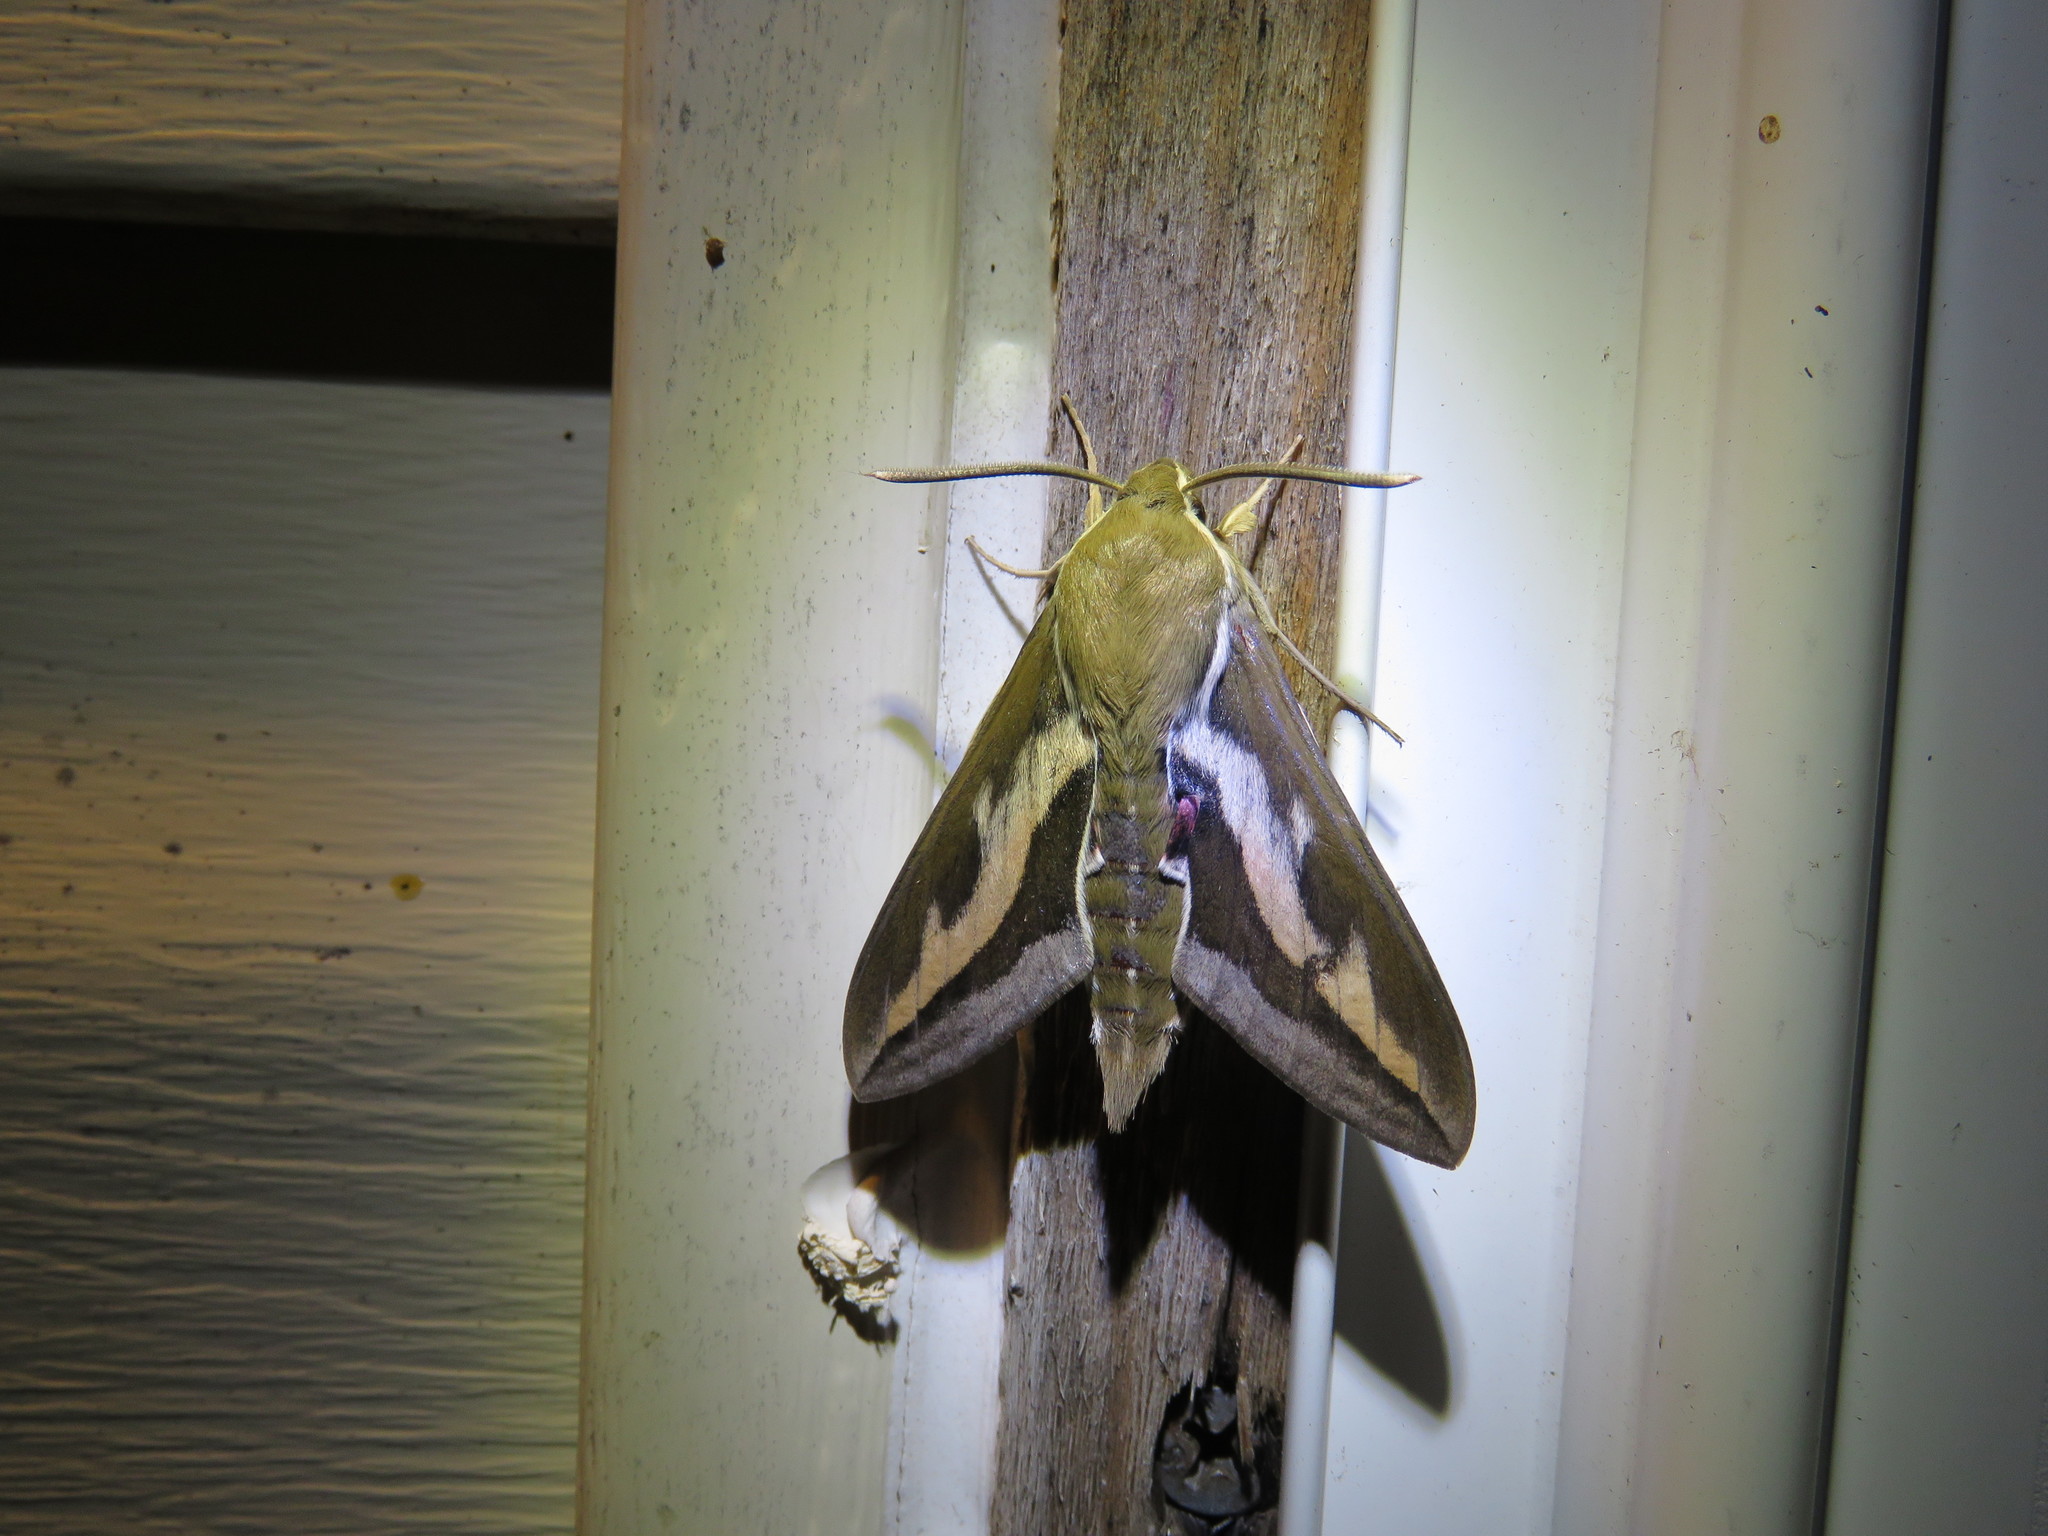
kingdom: Animalia
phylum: Arthropoda
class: Insecta
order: Lepidoptera
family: Sphingidae
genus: Hyles
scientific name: Hyles gallii
